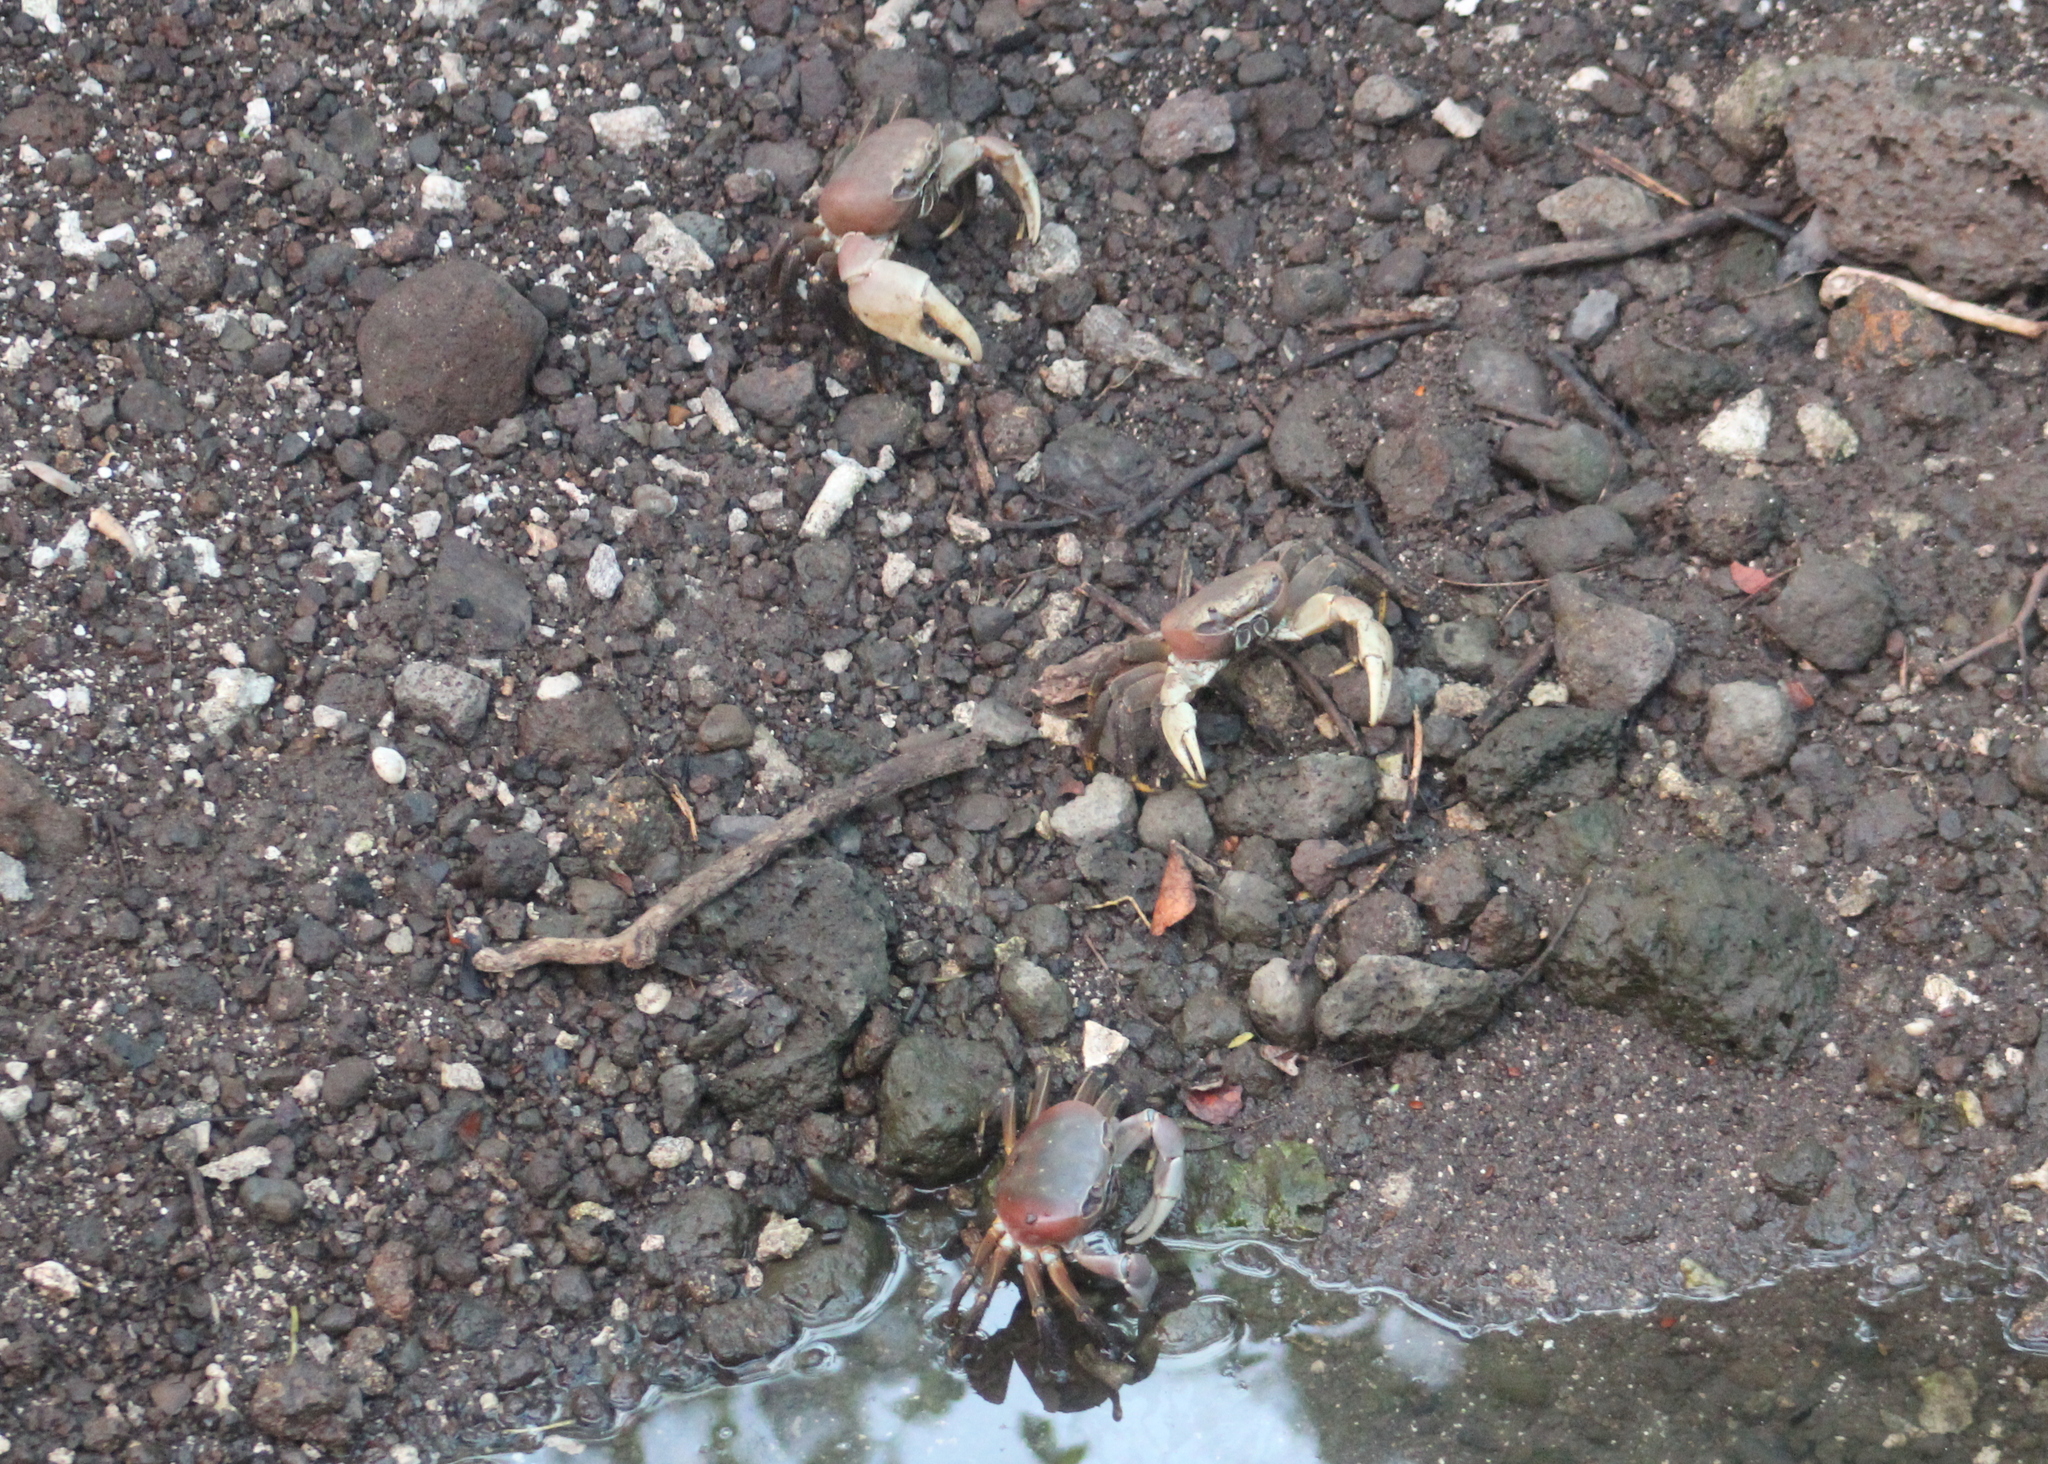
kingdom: Animalia
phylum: Arthropoda
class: Malacostraca
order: Decapoda
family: Gecarcinidae
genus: Cardisoma
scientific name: Cardisoma carnifex
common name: Brown land crab
